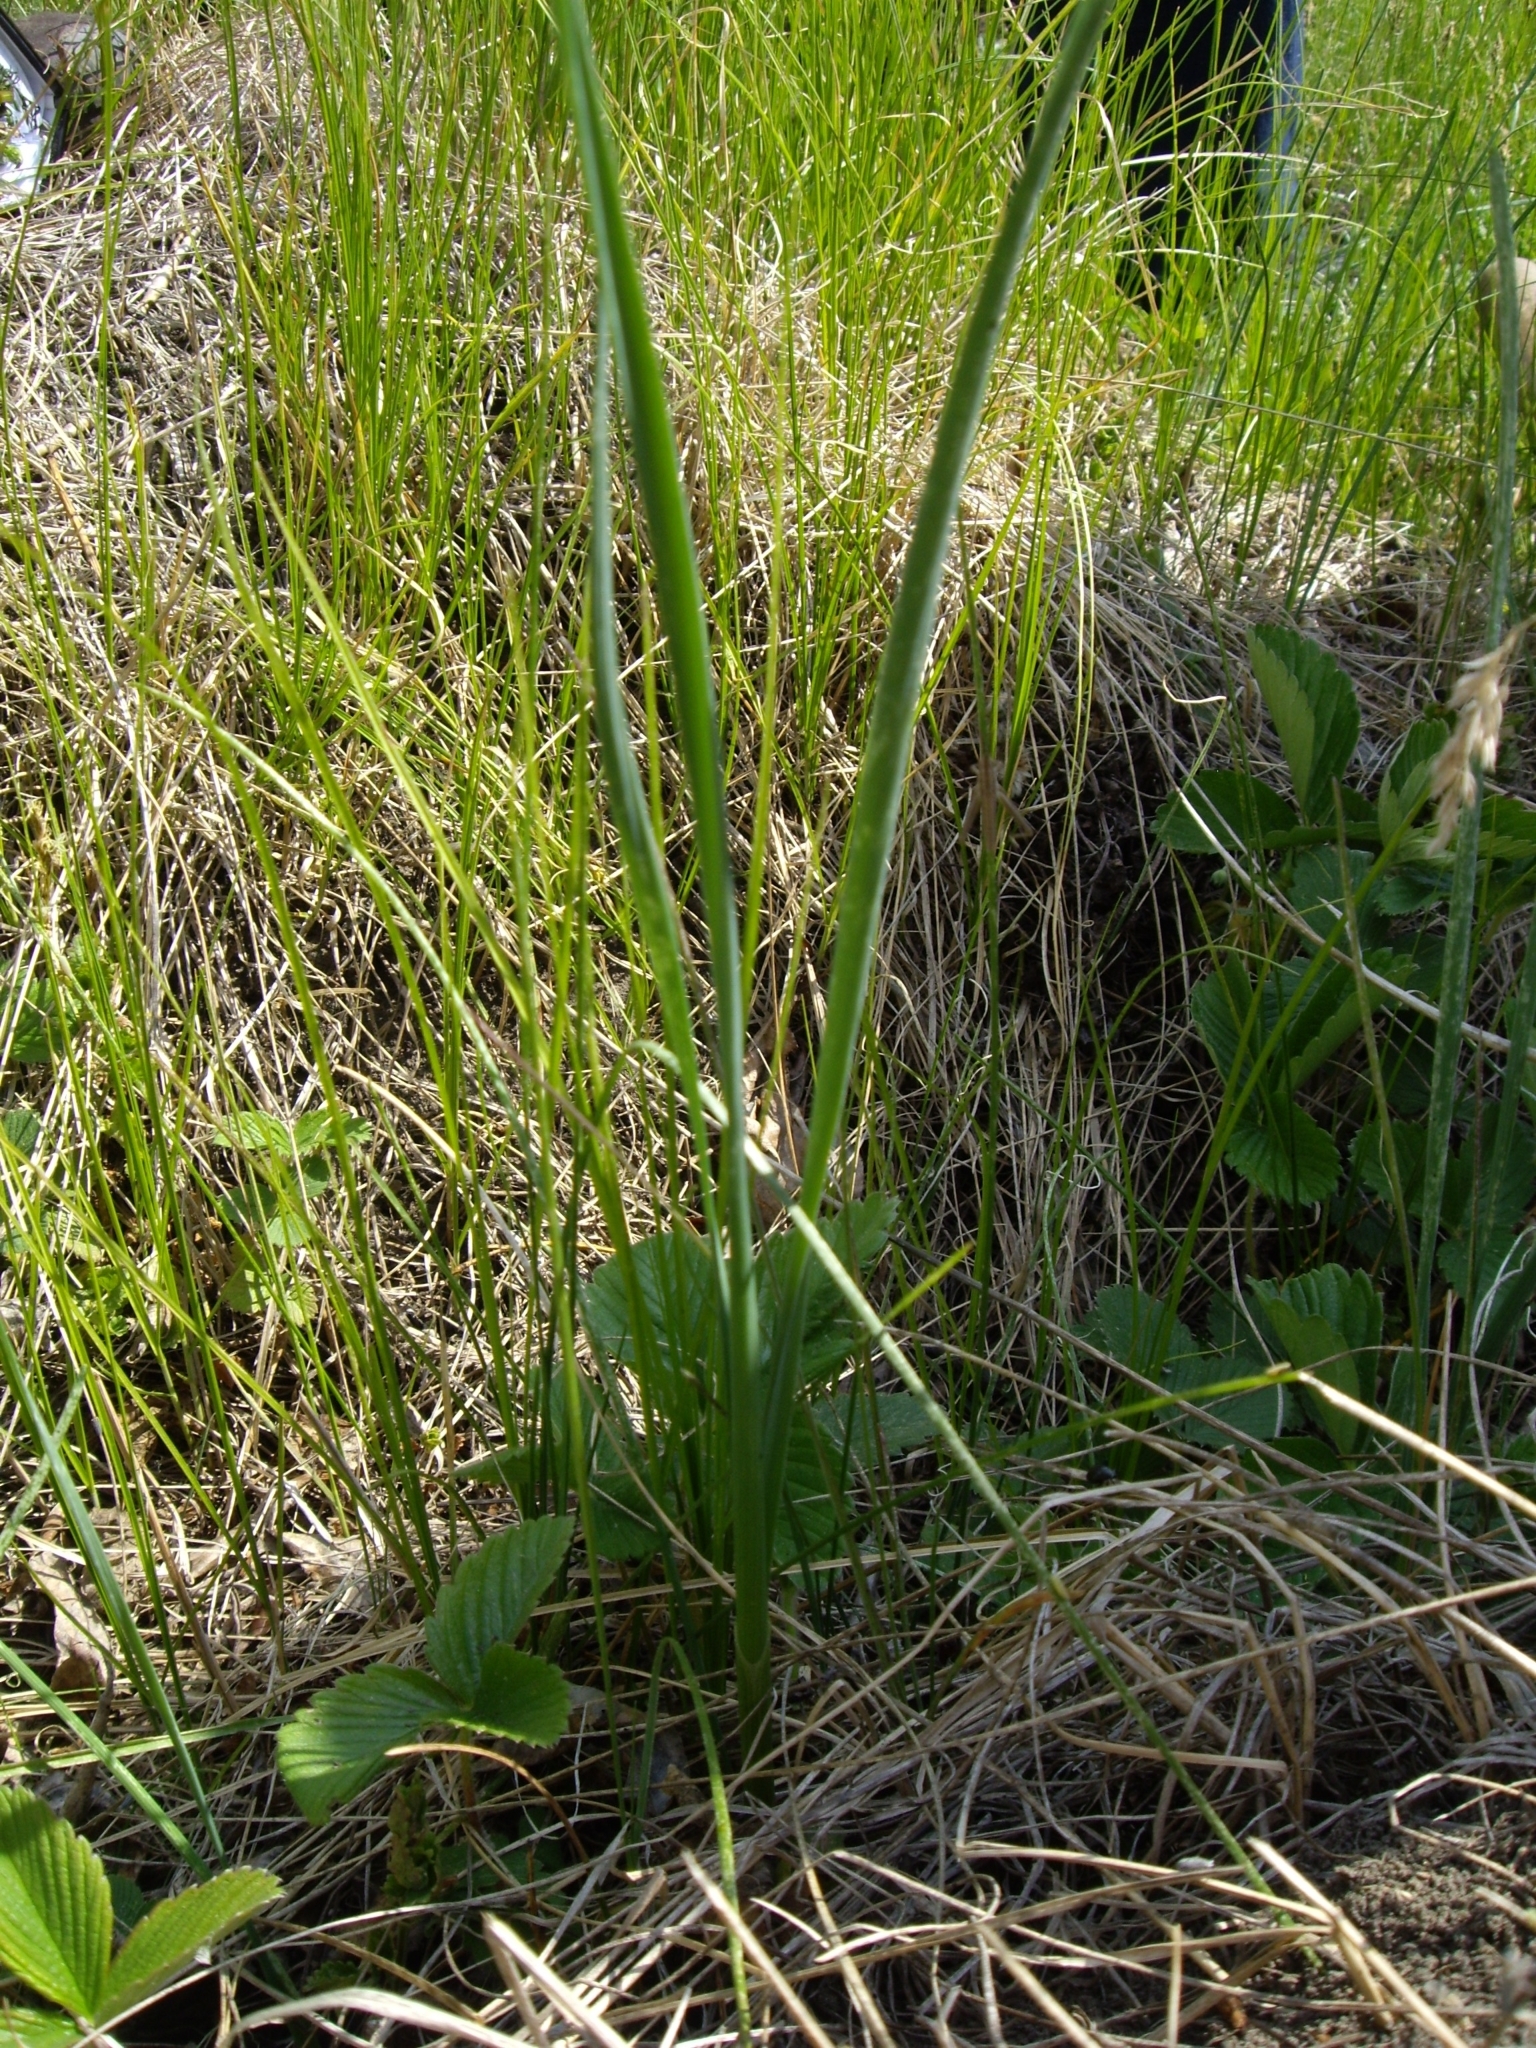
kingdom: Plantae
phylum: Tracheophyta
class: Liliopsida
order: Asparagales
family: Amaryllidaceae
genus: Allium
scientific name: Allium oleraceum
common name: Field garlic
